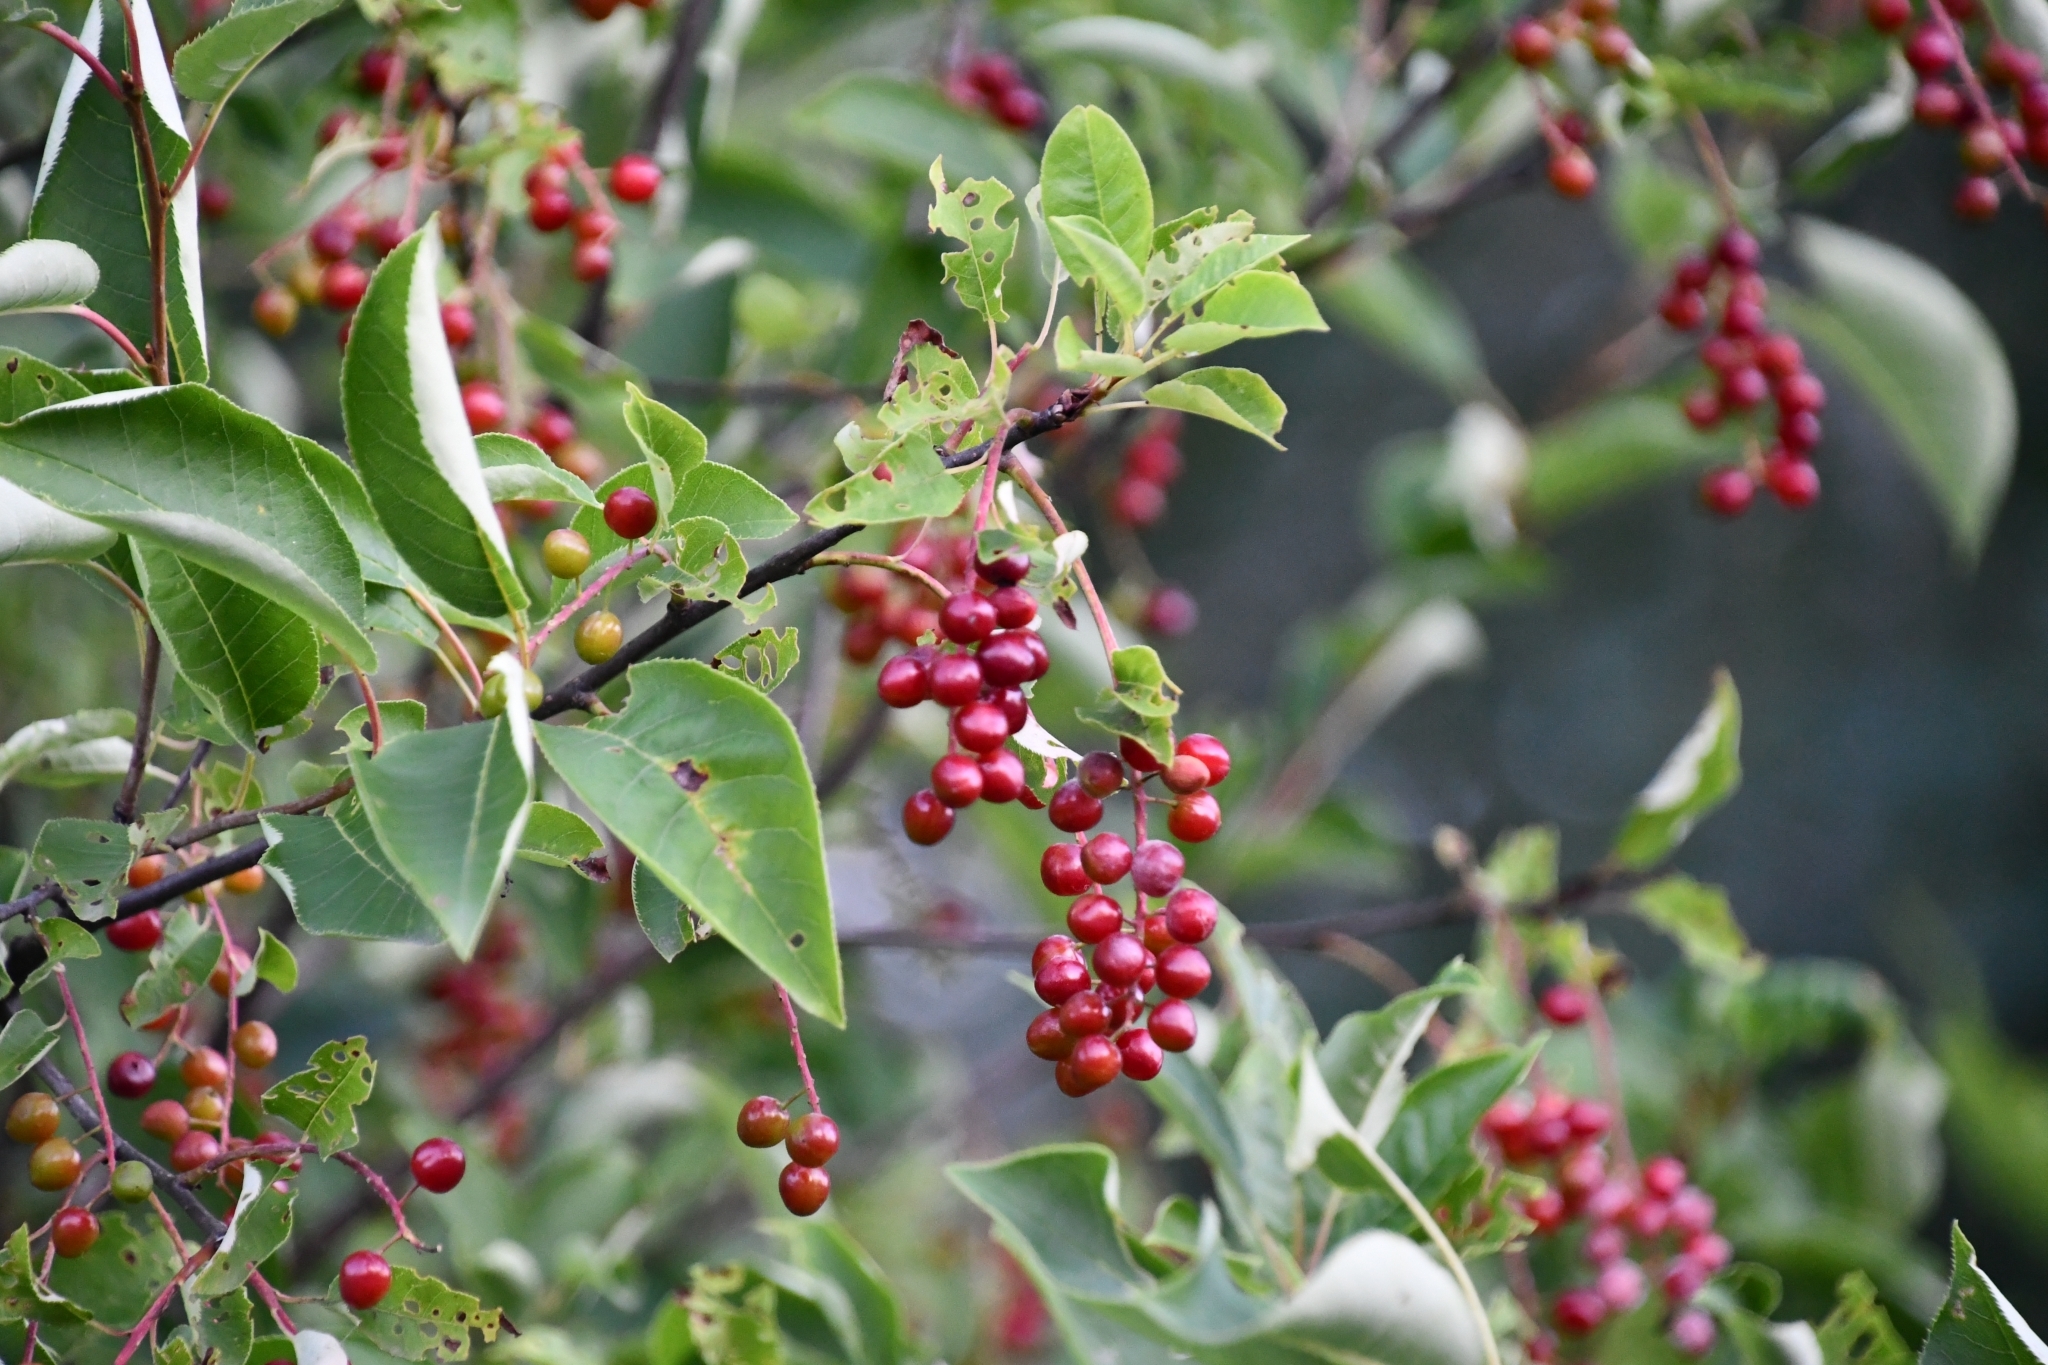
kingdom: Plantae
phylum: Tracheophyta
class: Magnoliopsida
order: Rosales
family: Rosaceae
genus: Prunus
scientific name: Prunus virginiana
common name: Chokecherry
